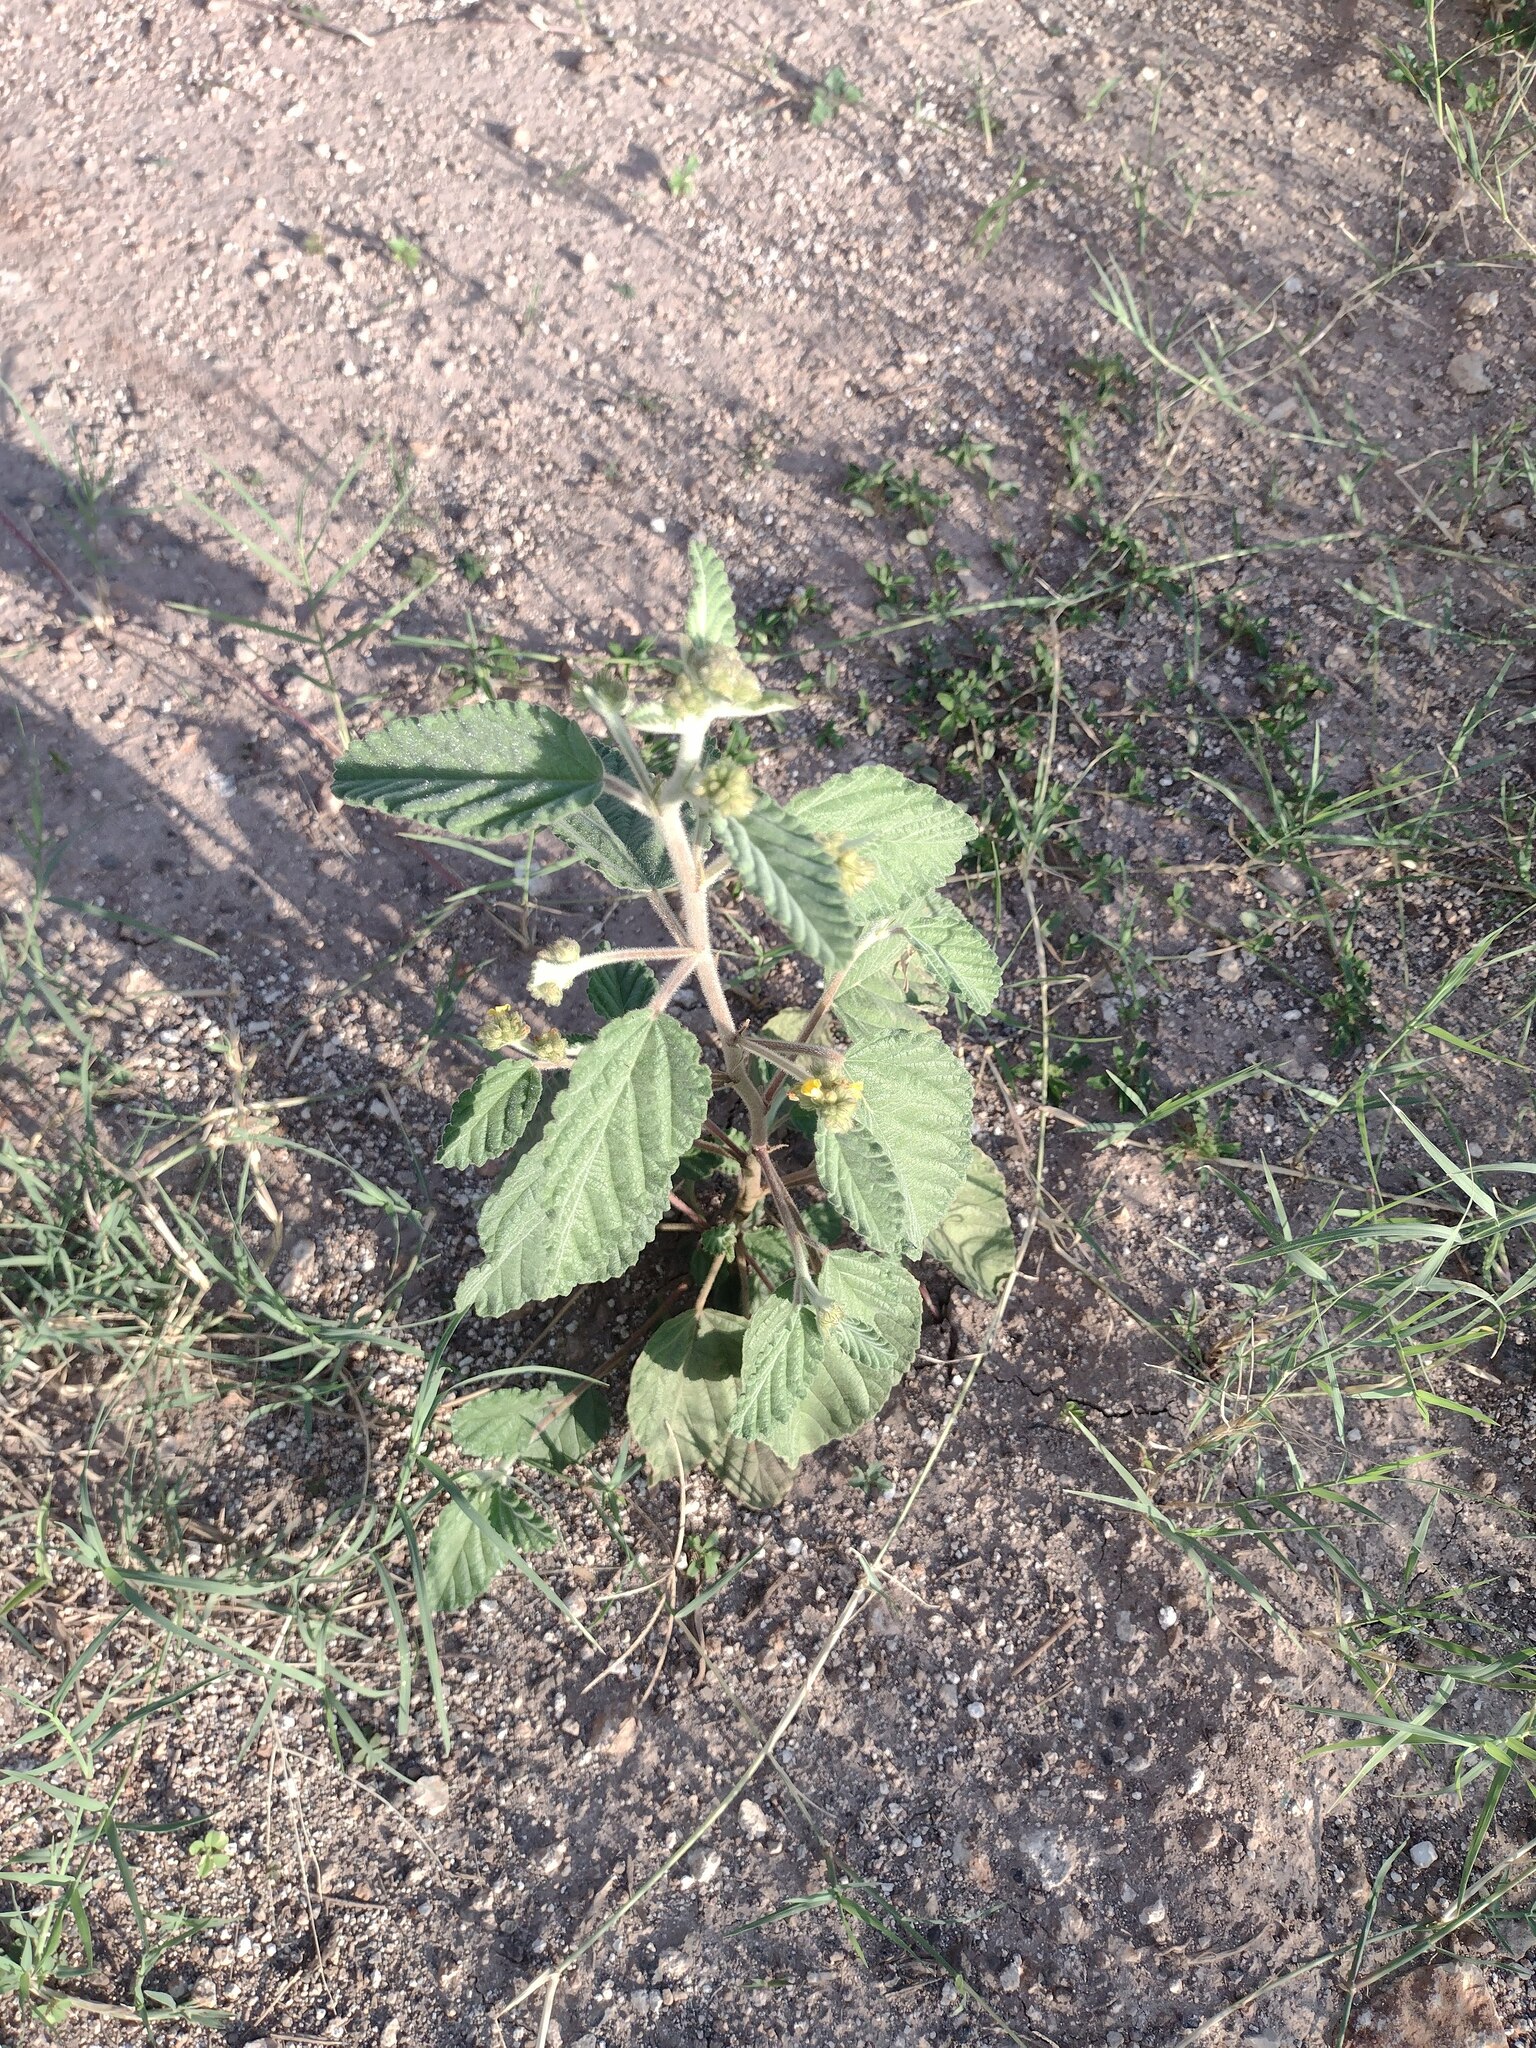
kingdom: Plantae
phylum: Tracheophyta
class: Magnoliopsida
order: Malvales
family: Malvaceae
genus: Waltheria
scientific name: Waltheria indica
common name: Leather-coat
